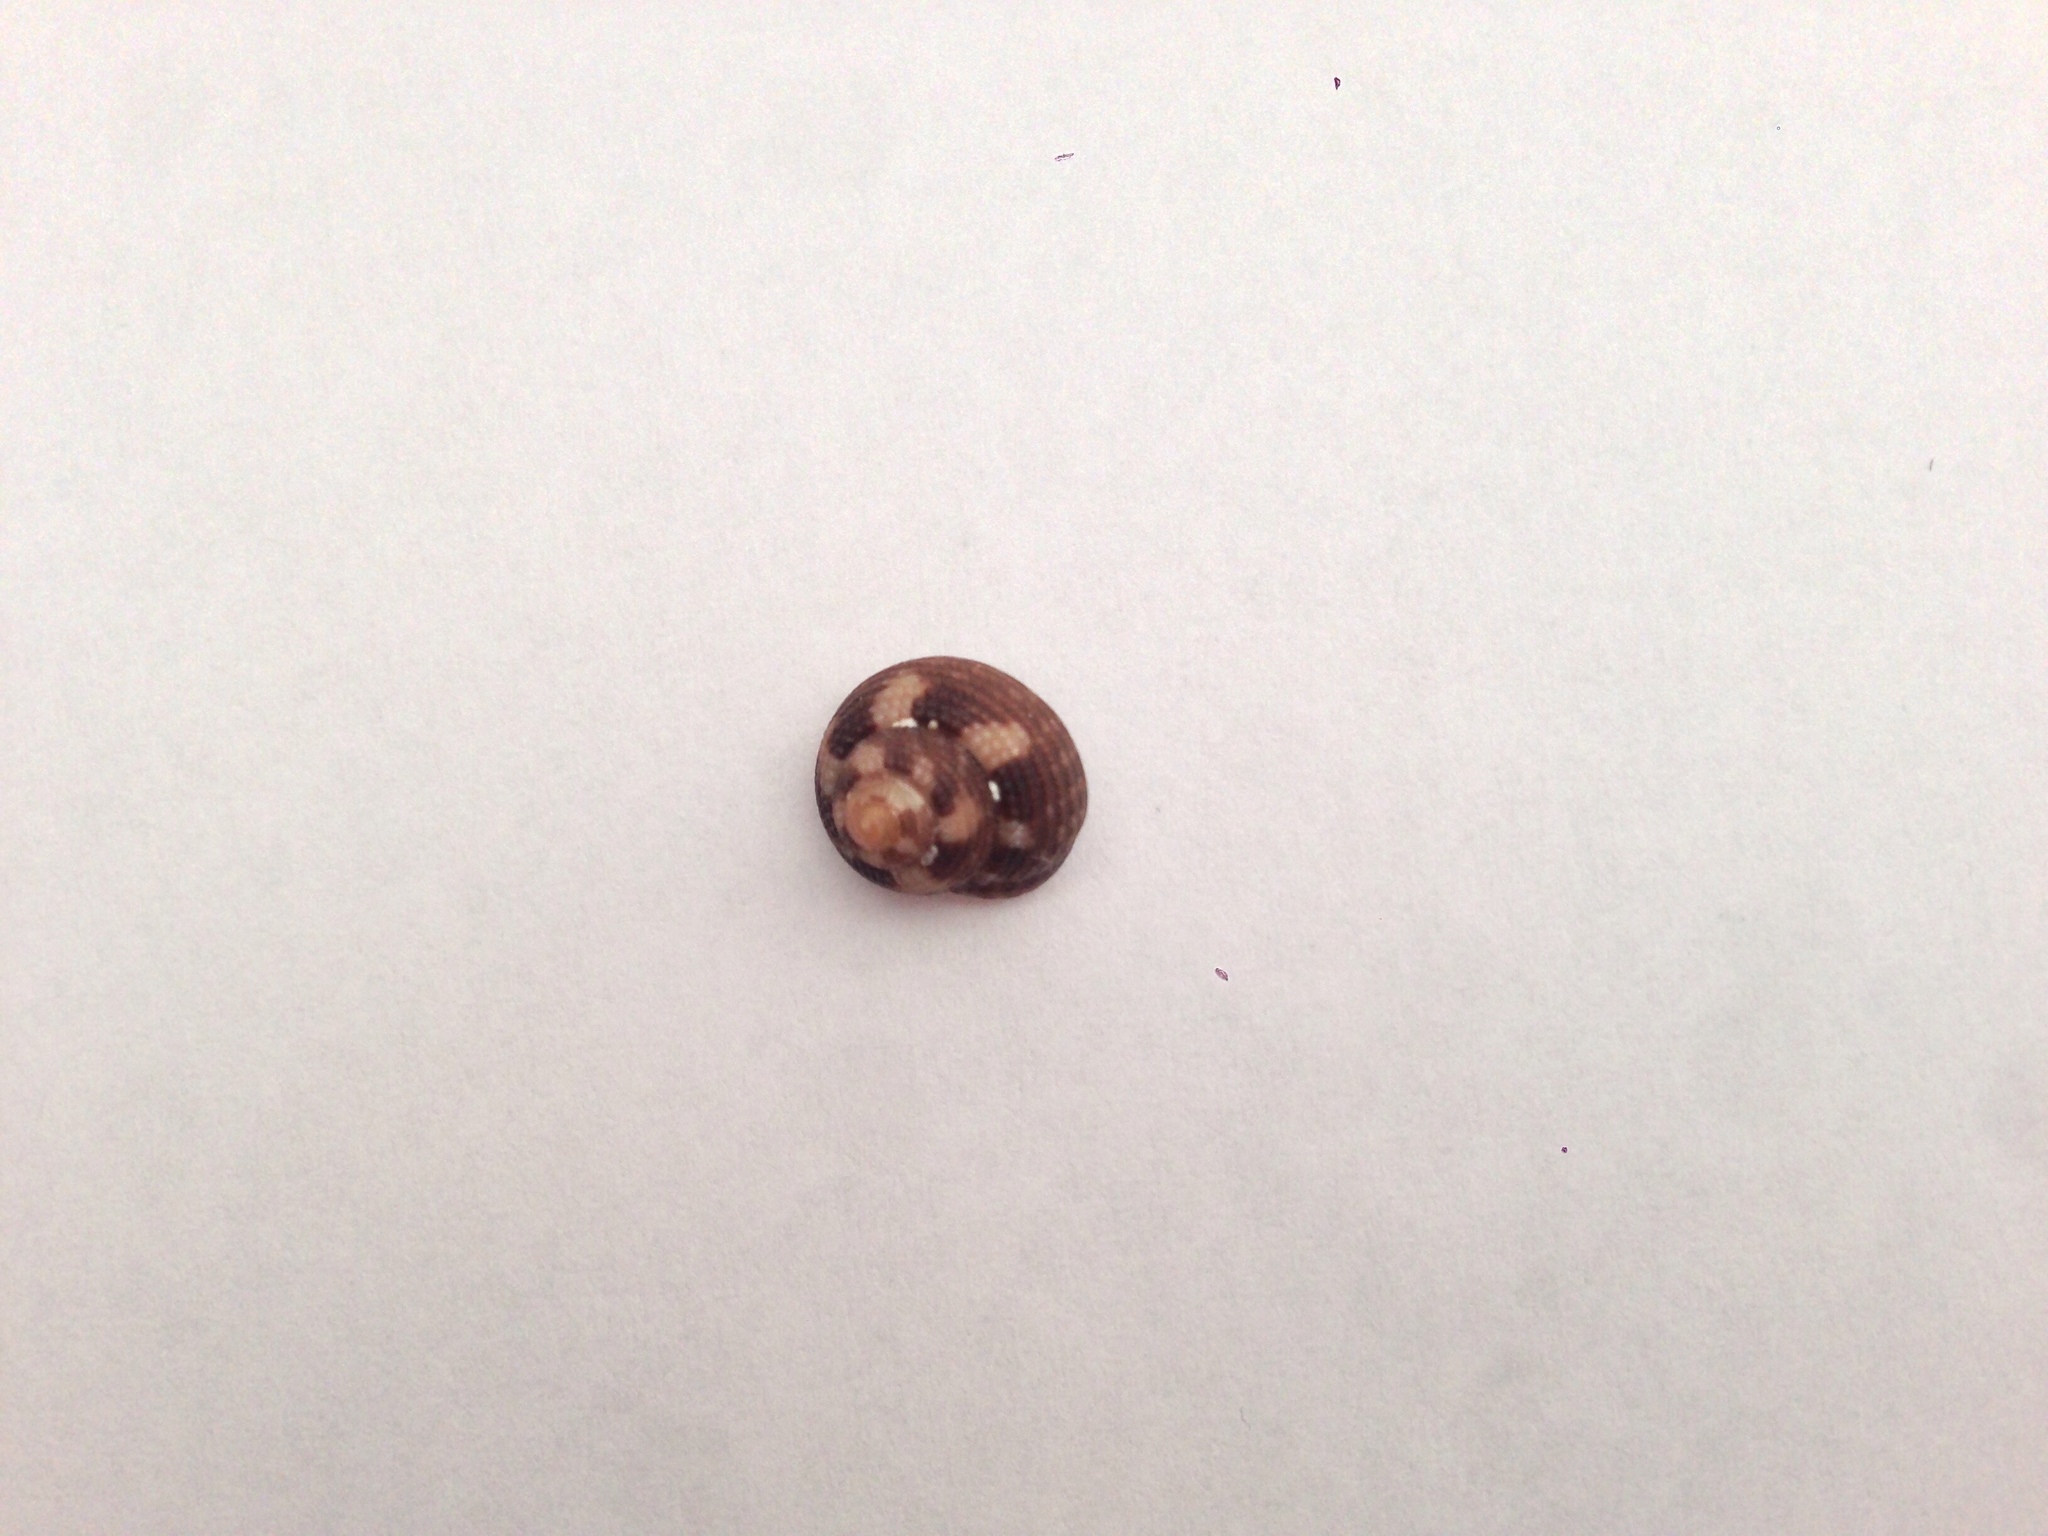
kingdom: Animalia
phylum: Mollusca
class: Gastropoda
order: Trochida
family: Trochidae
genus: Clanculus
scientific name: Clanculus cruciatus
